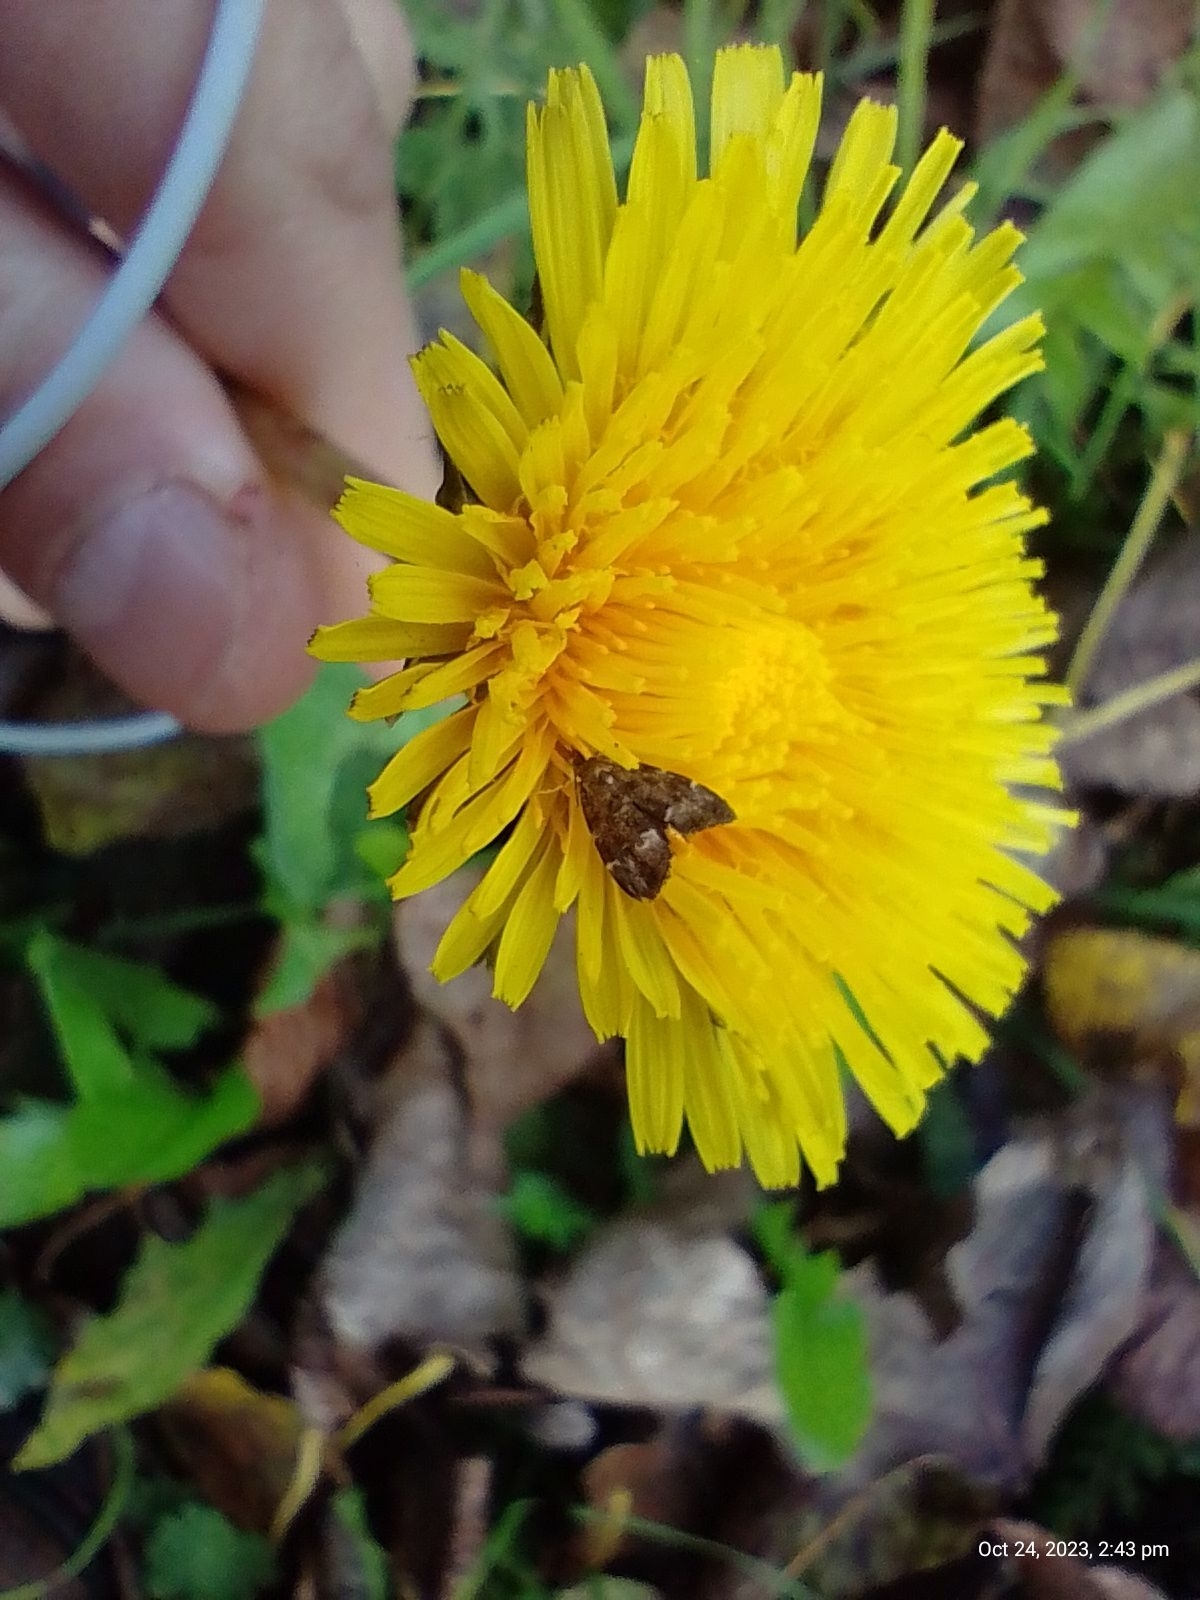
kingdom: Animalia
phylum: Arthropoda
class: Insecta
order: Lepidoptera
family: Choreutidae
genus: Anthophila
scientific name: Anthophila fabriciana
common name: Nettle-tap
